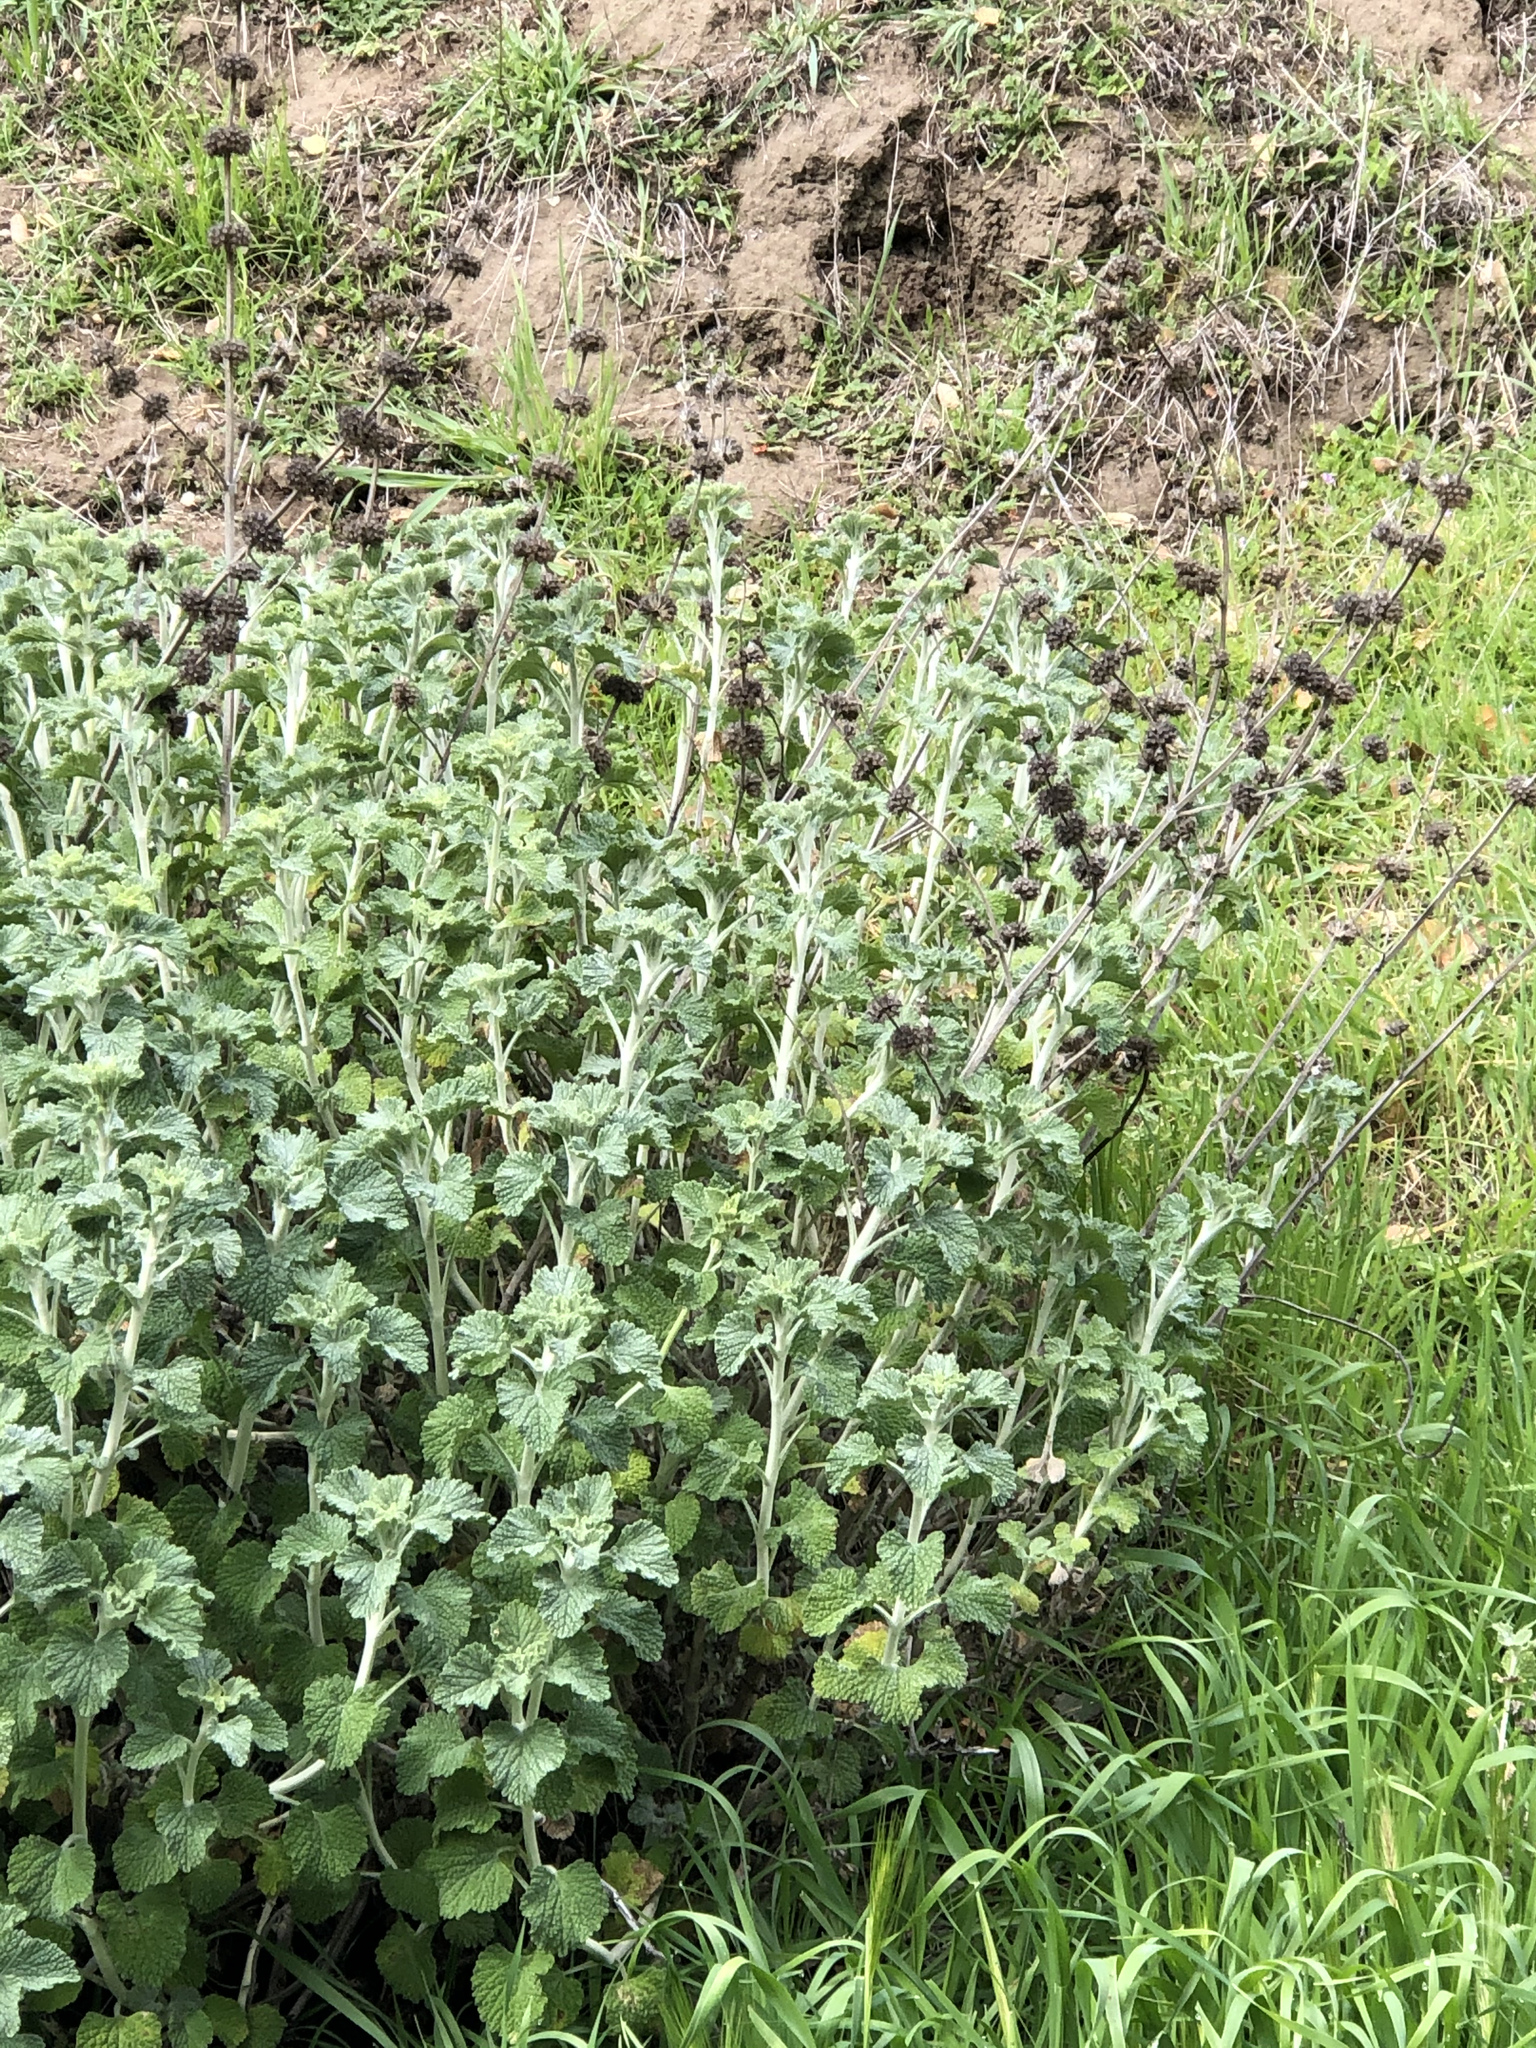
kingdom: Plantae
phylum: Tracheophyta
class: Magnoliopsida
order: Lamiales
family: Lamiaceae
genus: Marrubium
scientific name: Marrubium vulgare
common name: Horehound
